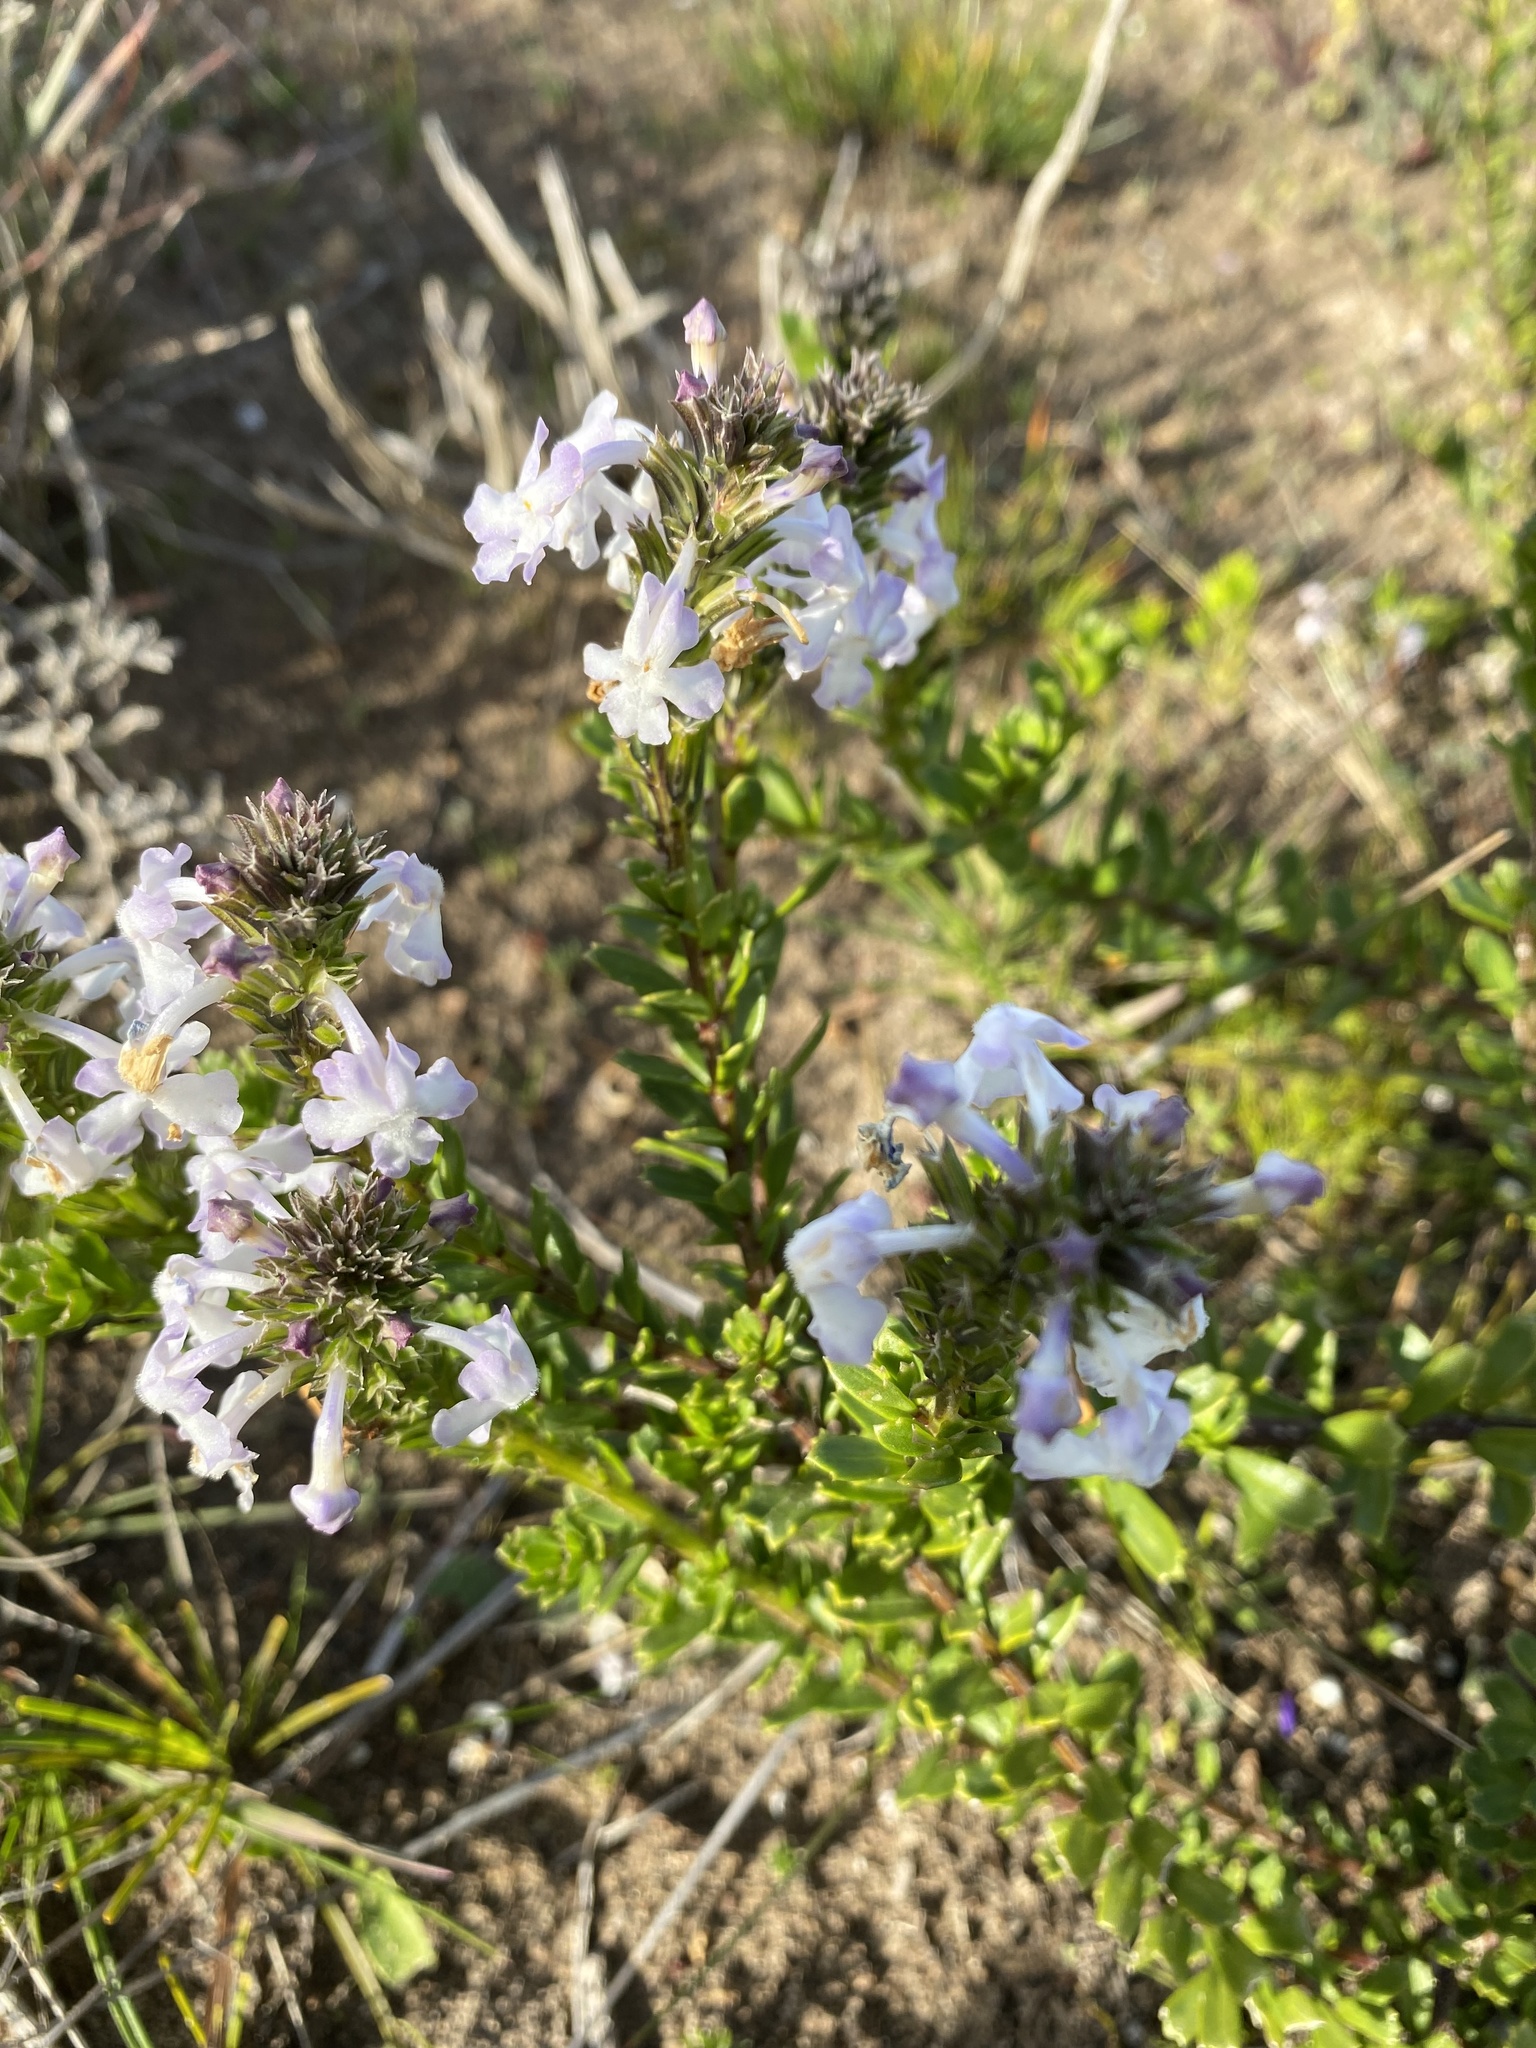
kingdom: Plantae
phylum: Tracheophyta
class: Magnoliopsida
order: Lamiales
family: Verbenaceae
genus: Chascanum
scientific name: Chascanum cernuum
